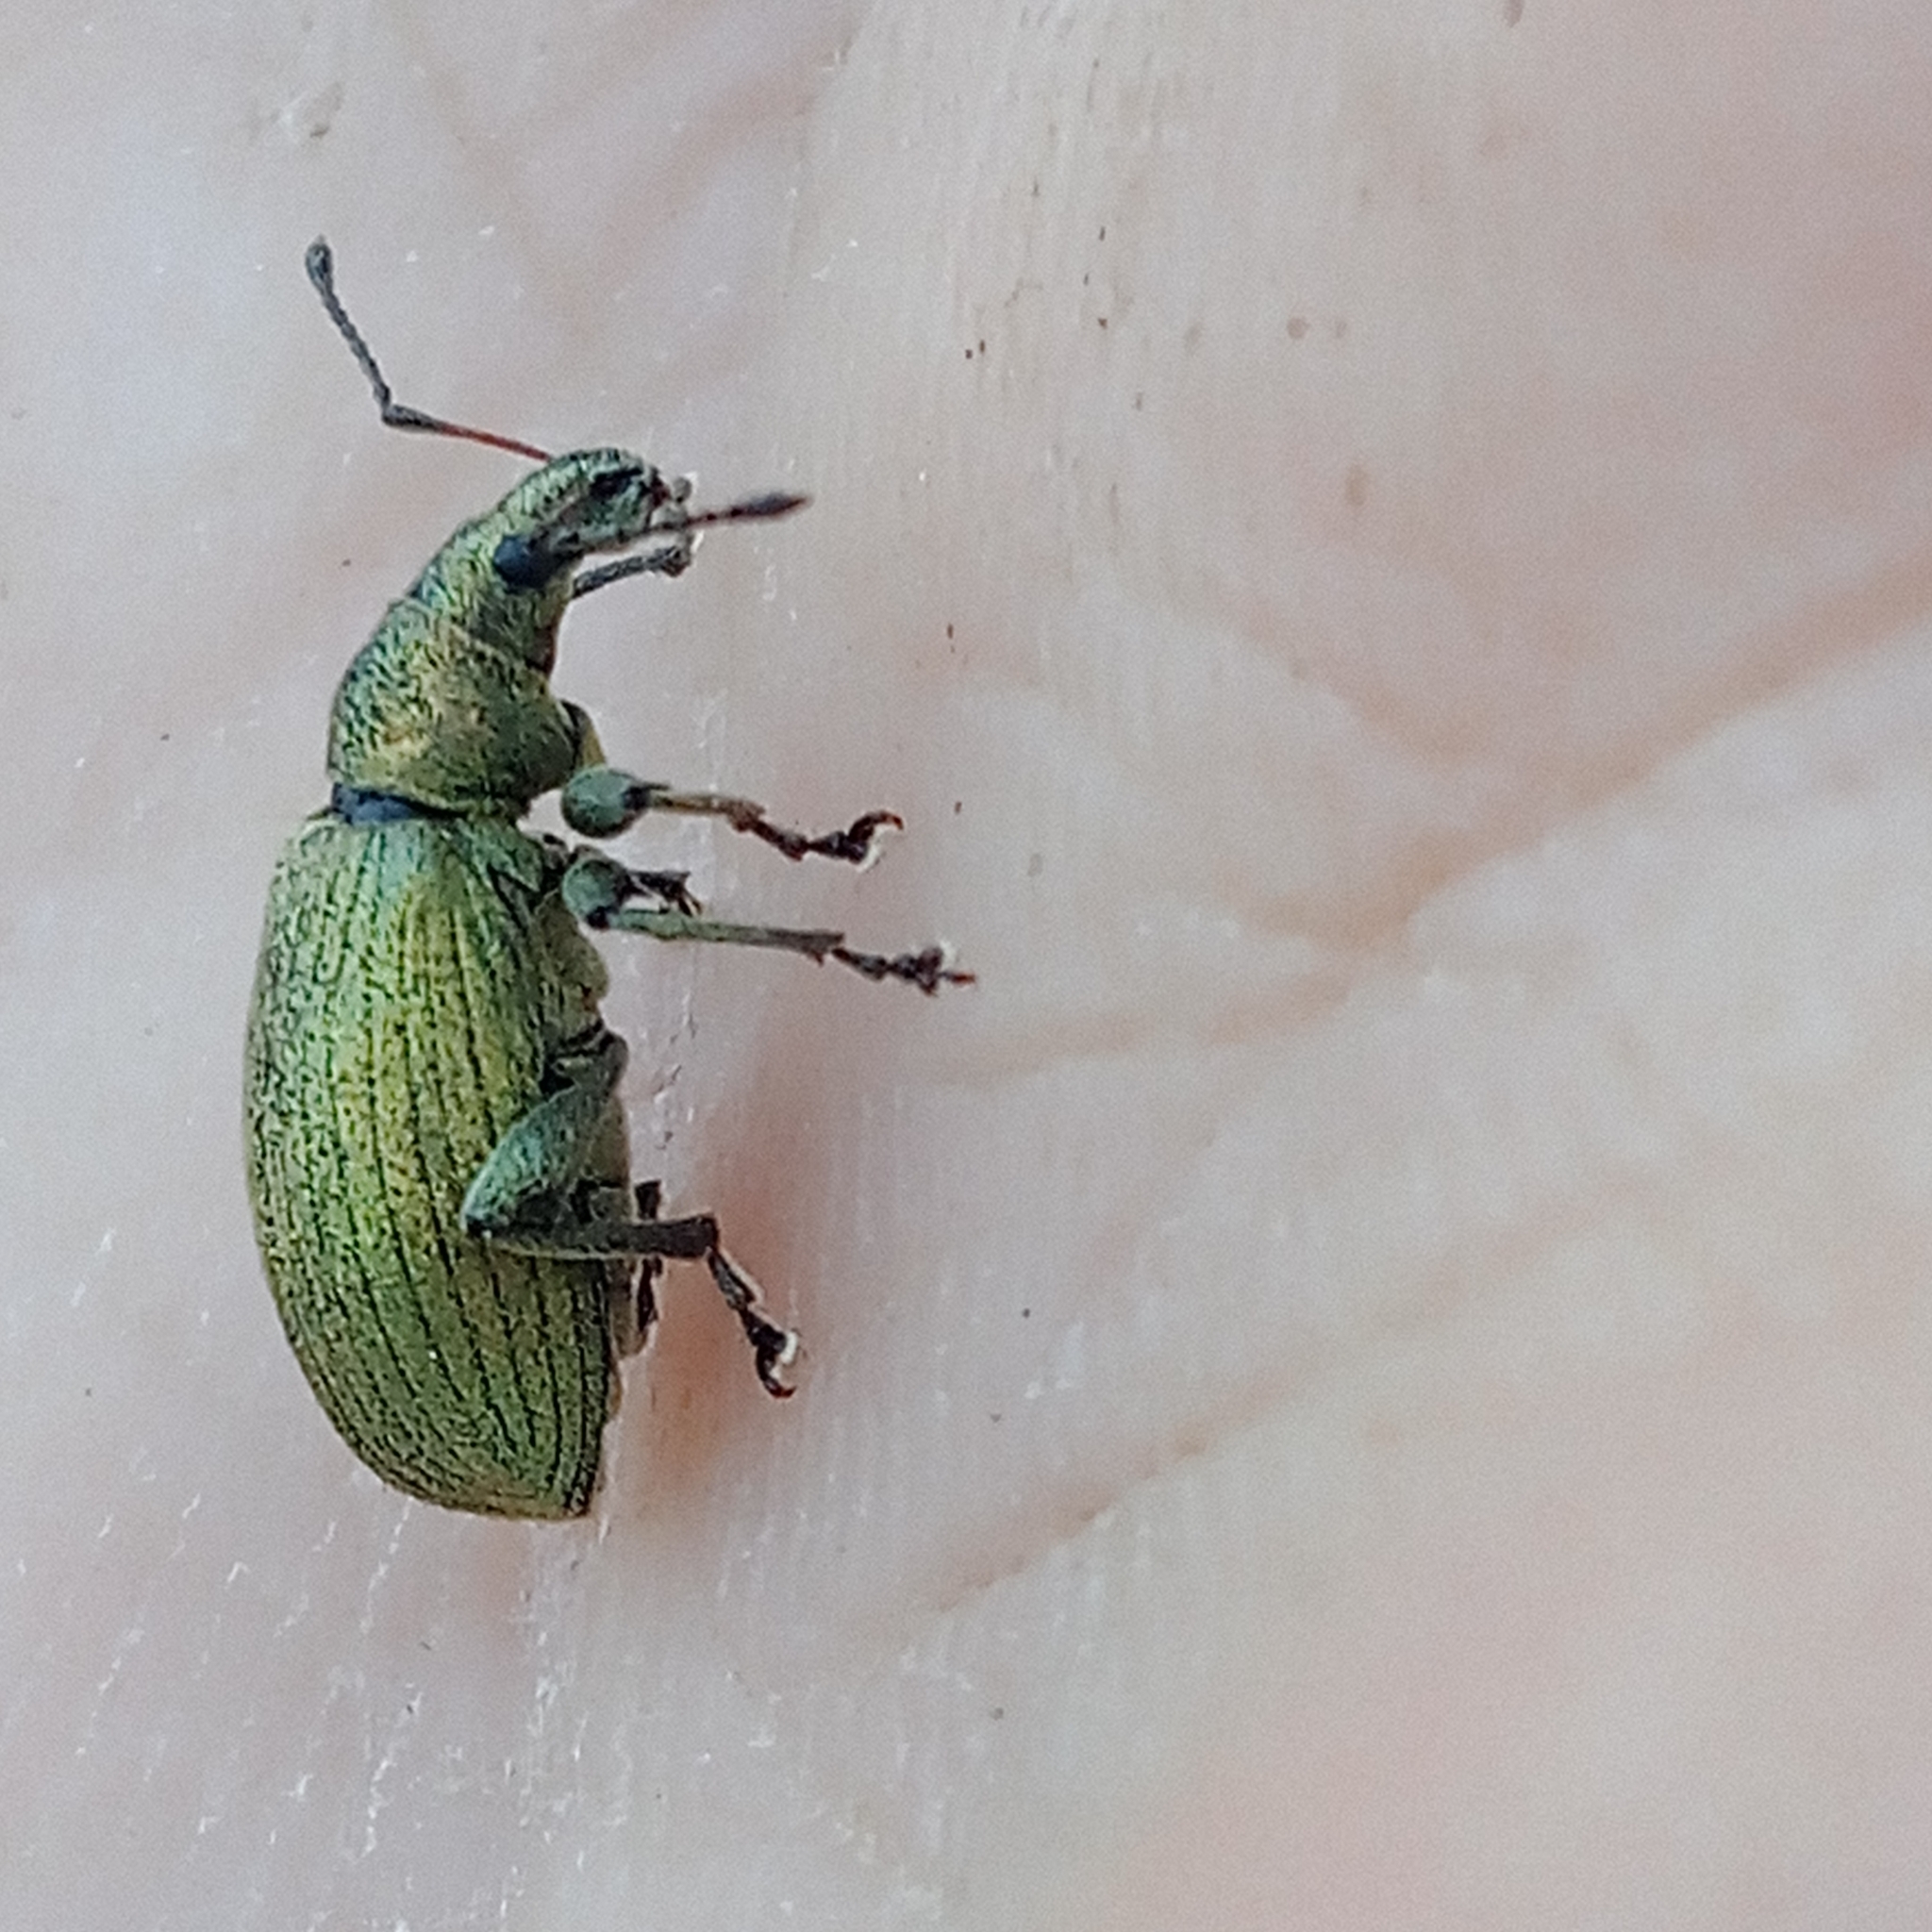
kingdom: Animalia
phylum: Arthropoda
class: Insecta
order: Coleoptera
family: Curculionidae
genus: Phyllobius
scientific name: Phyllobius pomaceus
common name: Green nettle weevil
